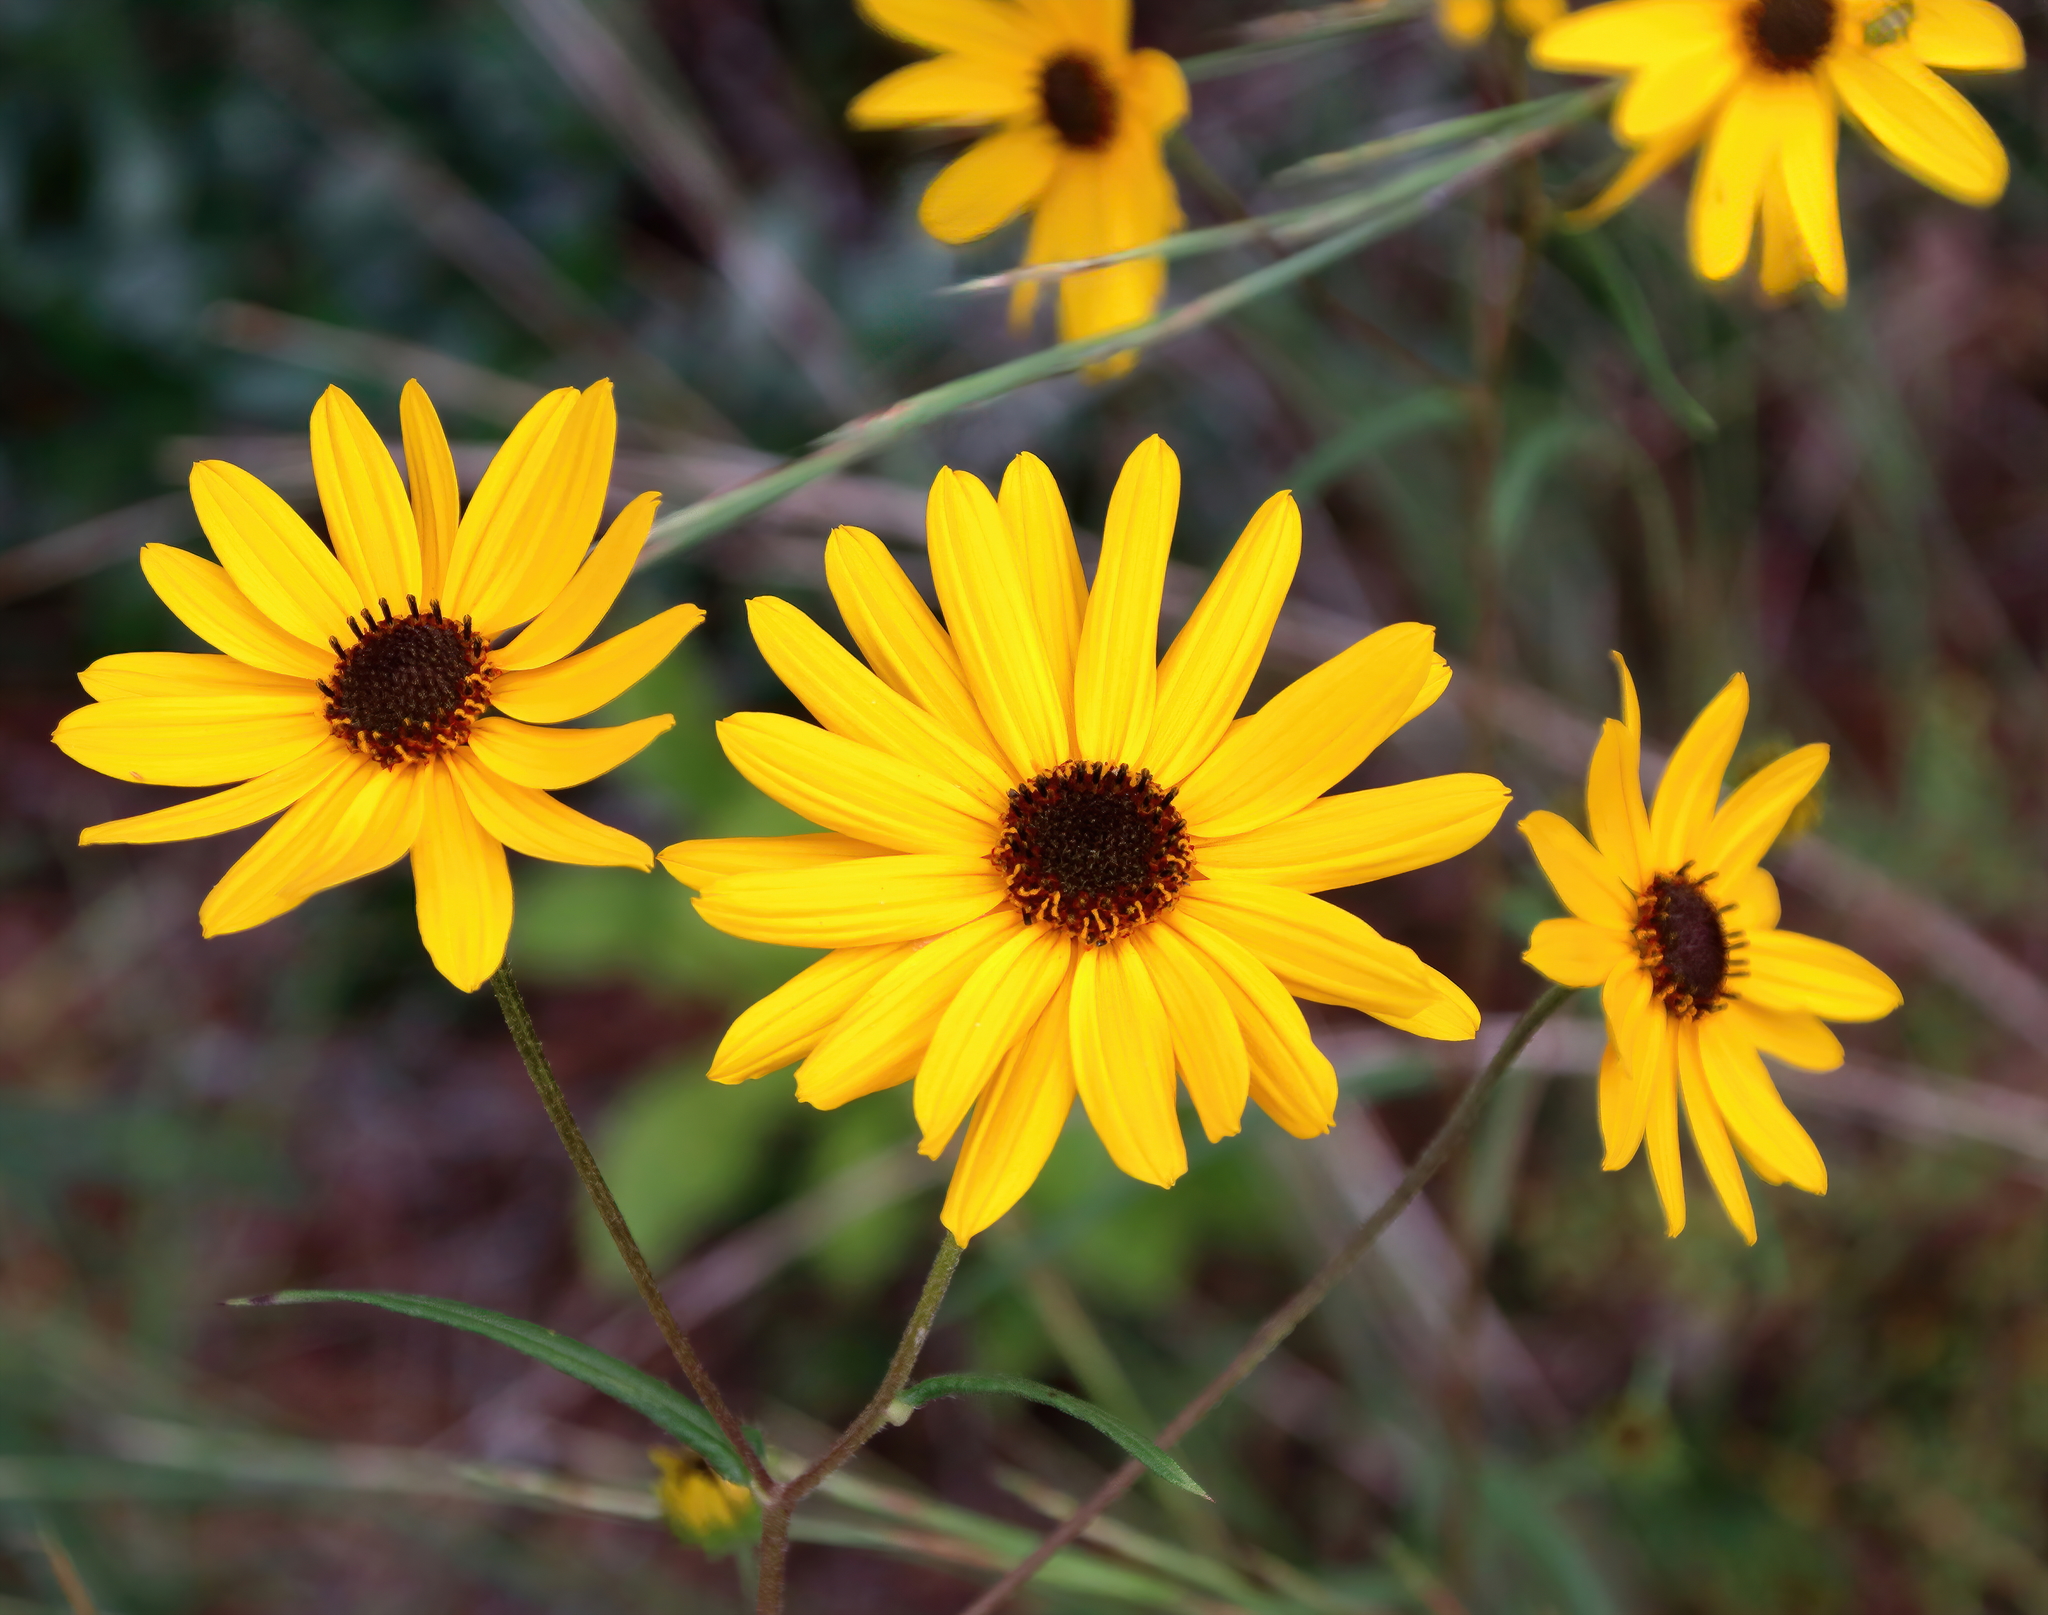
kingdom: Plantae
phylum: Tracheophyta
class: Magnoliopsida
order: Asterales
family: Asteraceae
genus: Helianthus
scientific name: Helianthus angustifolius
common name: Swamp sunflower
